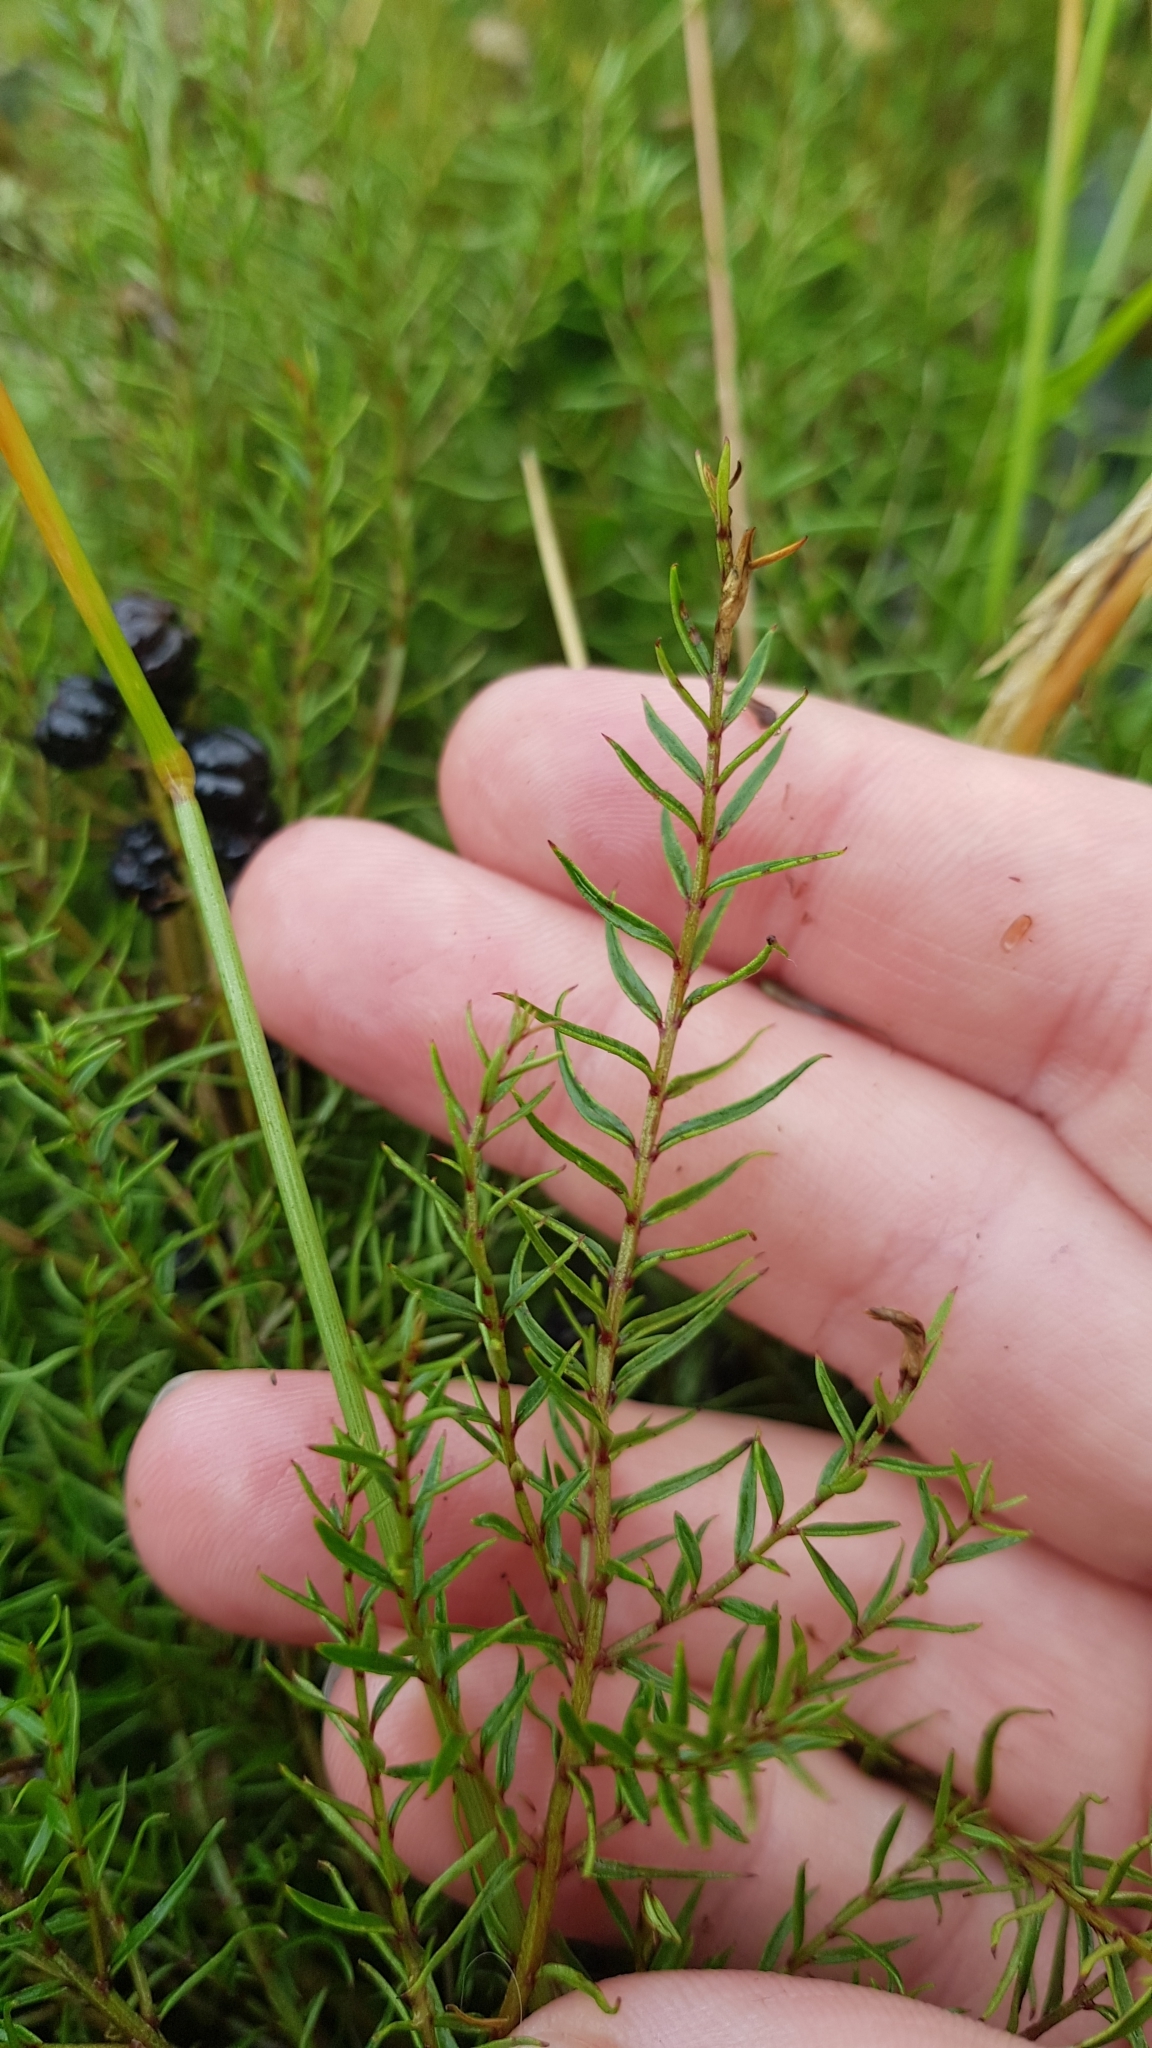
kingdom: Plantae
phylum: Tracheophyta
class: Magnoliopsida
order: Cucurbitales
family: Coriariaceae
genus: Coriaria
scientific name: Coriaria angustissima
